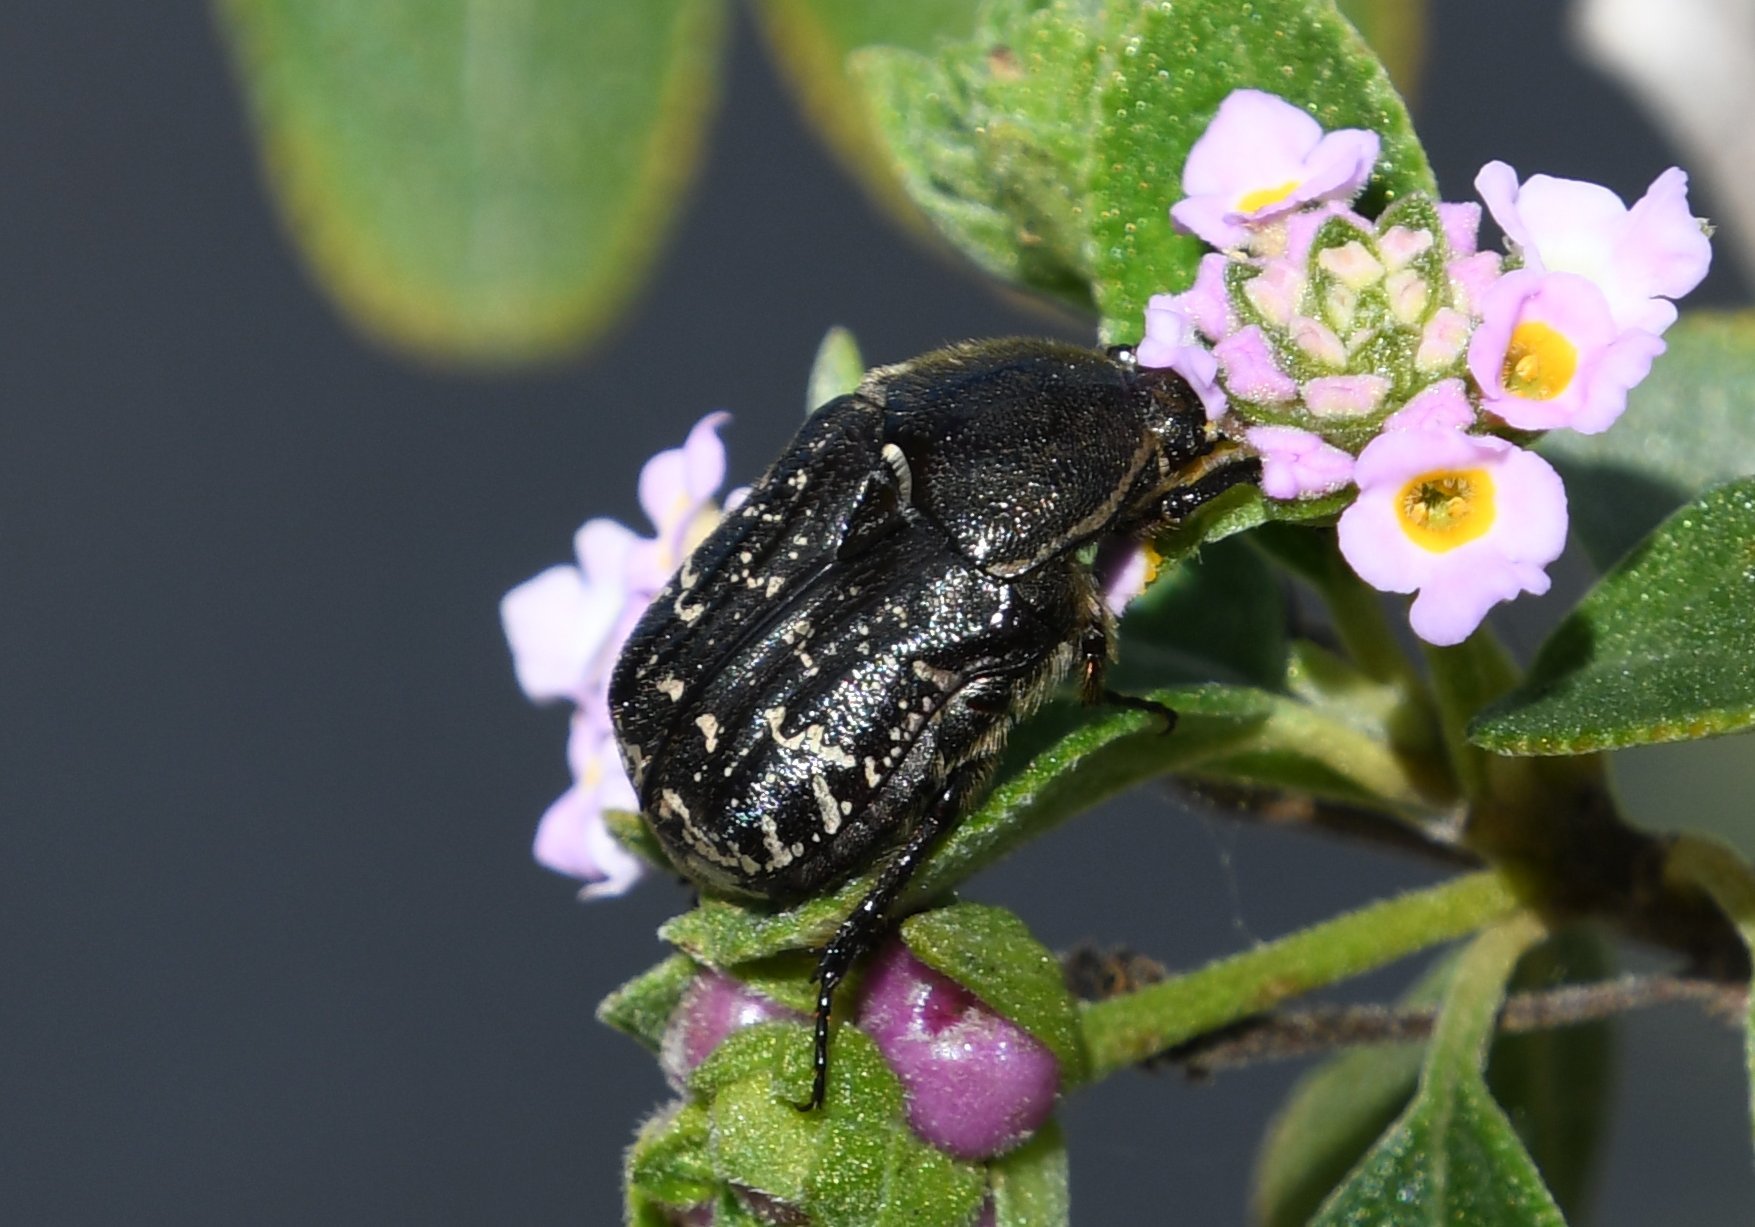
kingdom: Animalia
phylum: Arthropoda
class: Insecta
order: Coleoptera
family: Scarabaeidae
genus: Euphoria
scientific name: Euphoria sepulcralis
